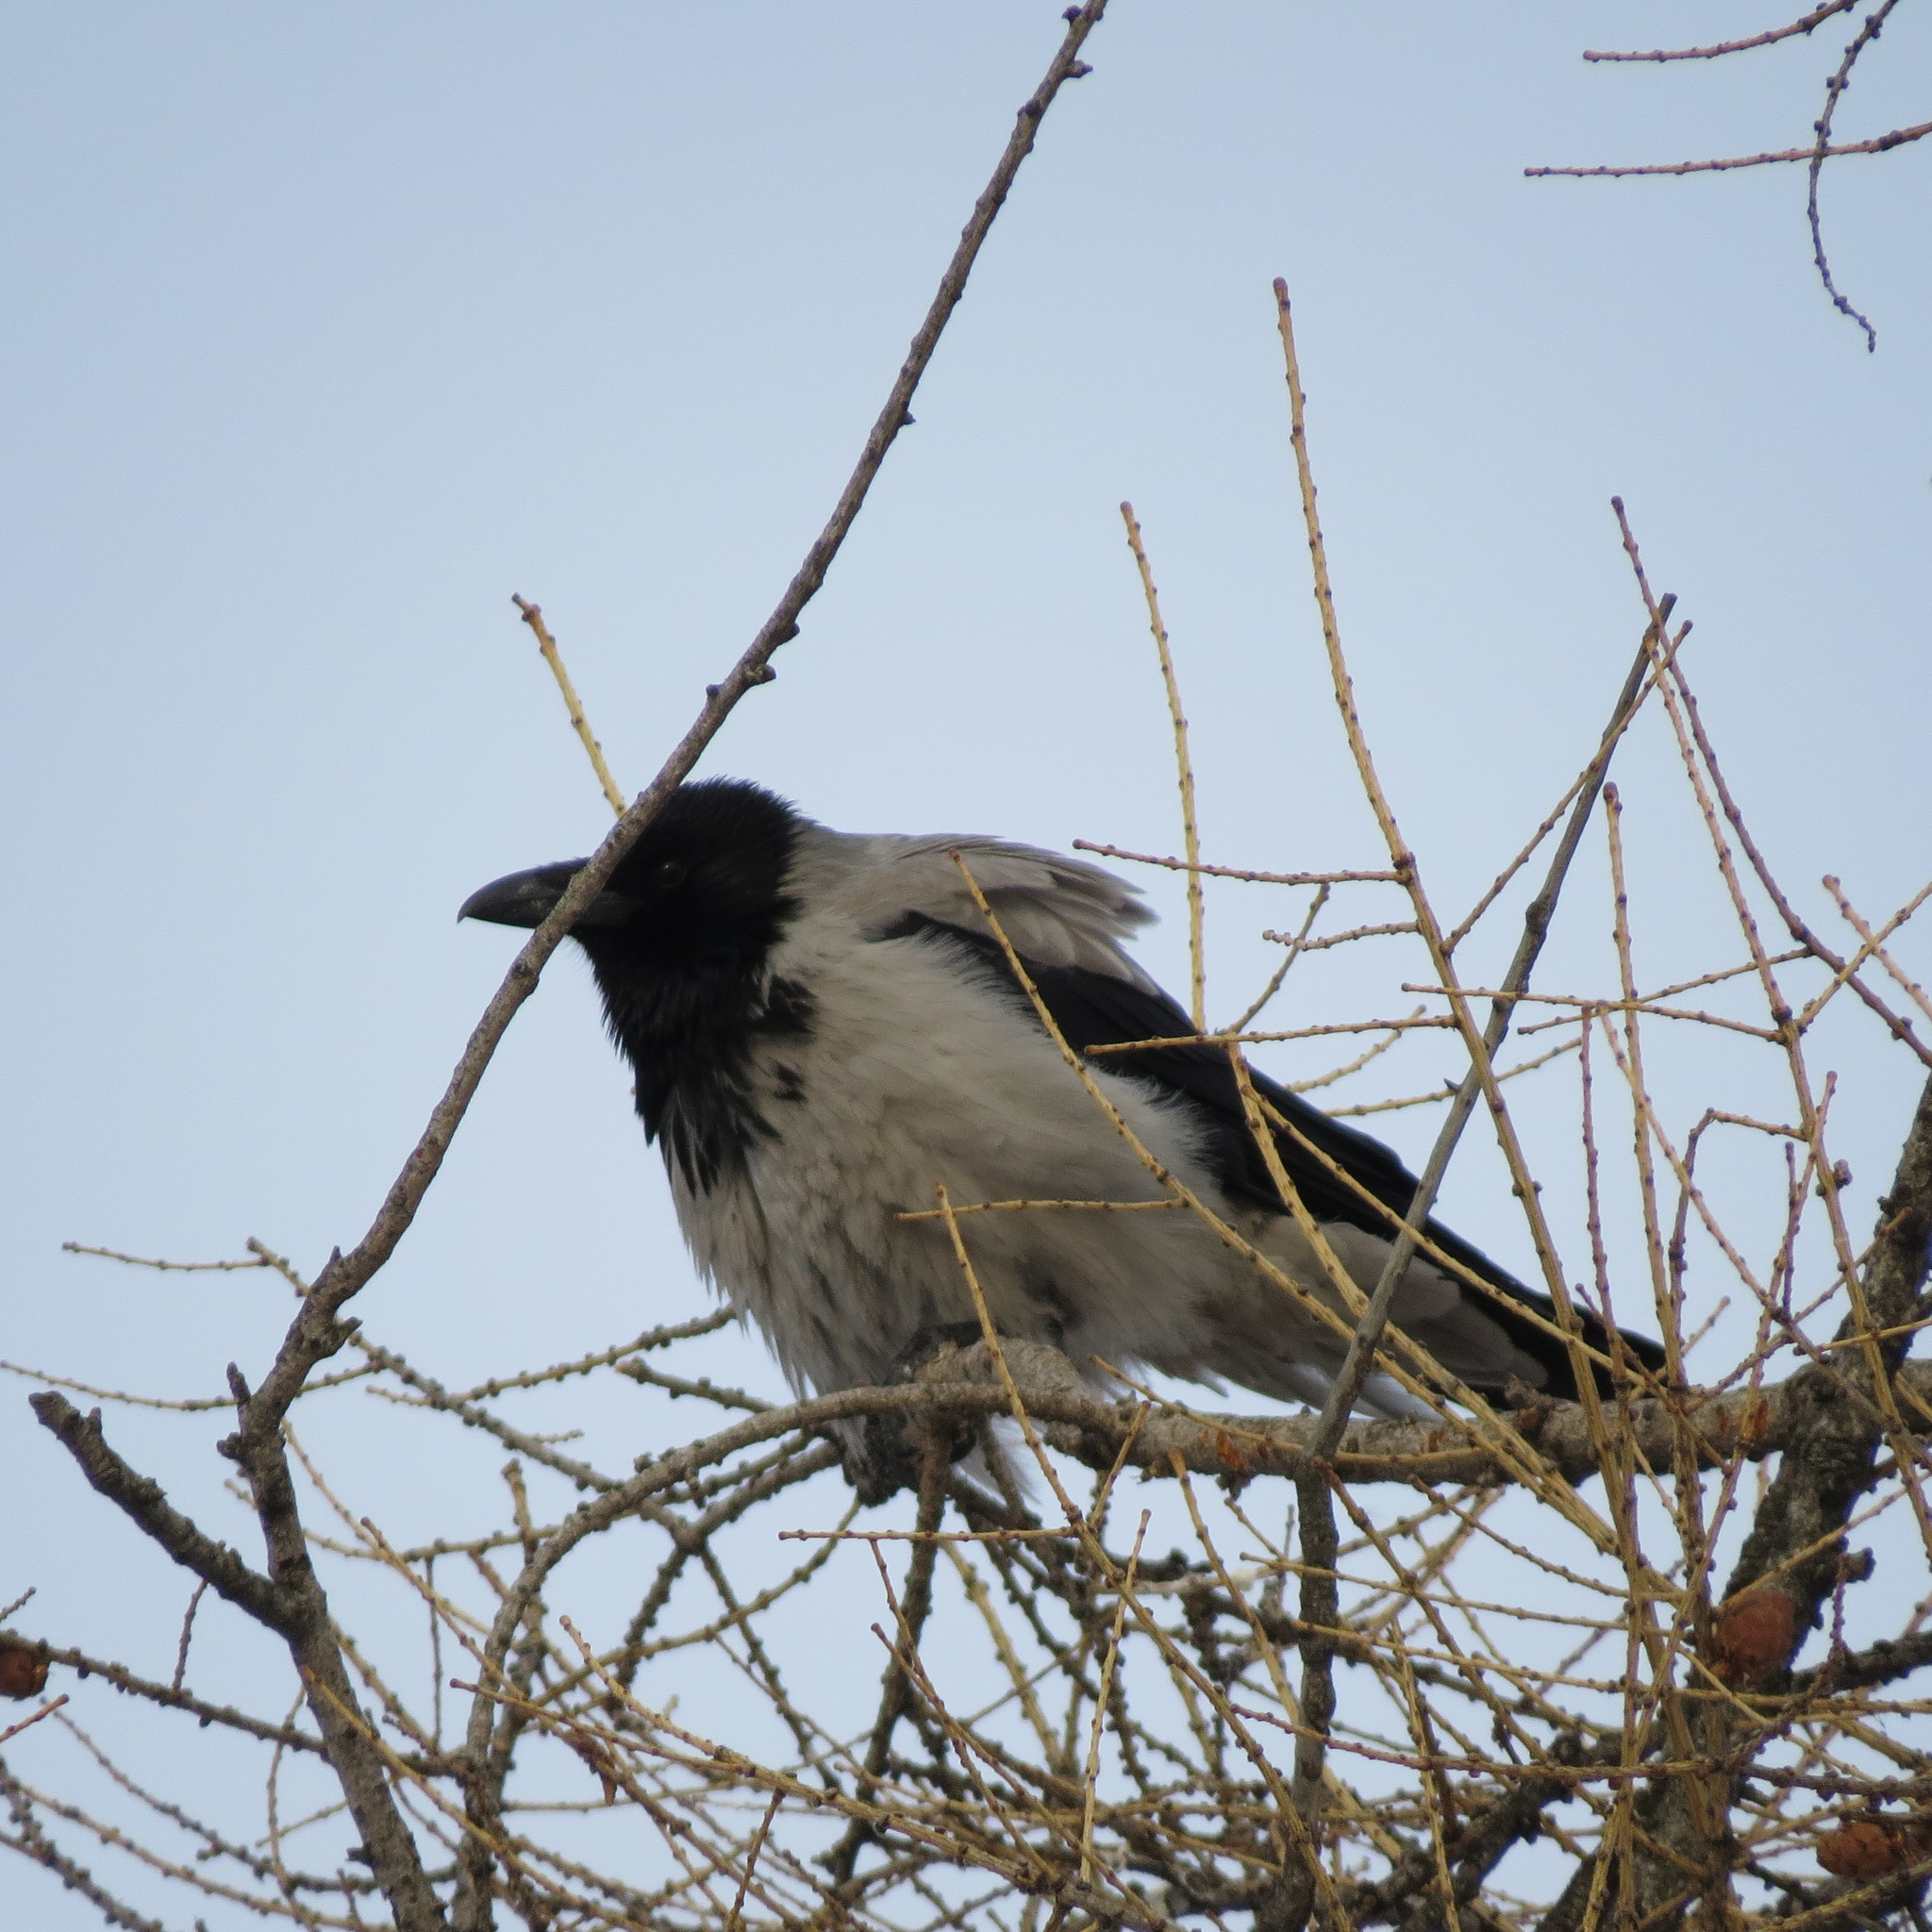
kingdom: Animalia
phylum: Chordata
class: Aves
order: Passeriformes
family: Corvidae
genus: Corvus
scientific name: Corvus cornix
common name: Hooded crow
